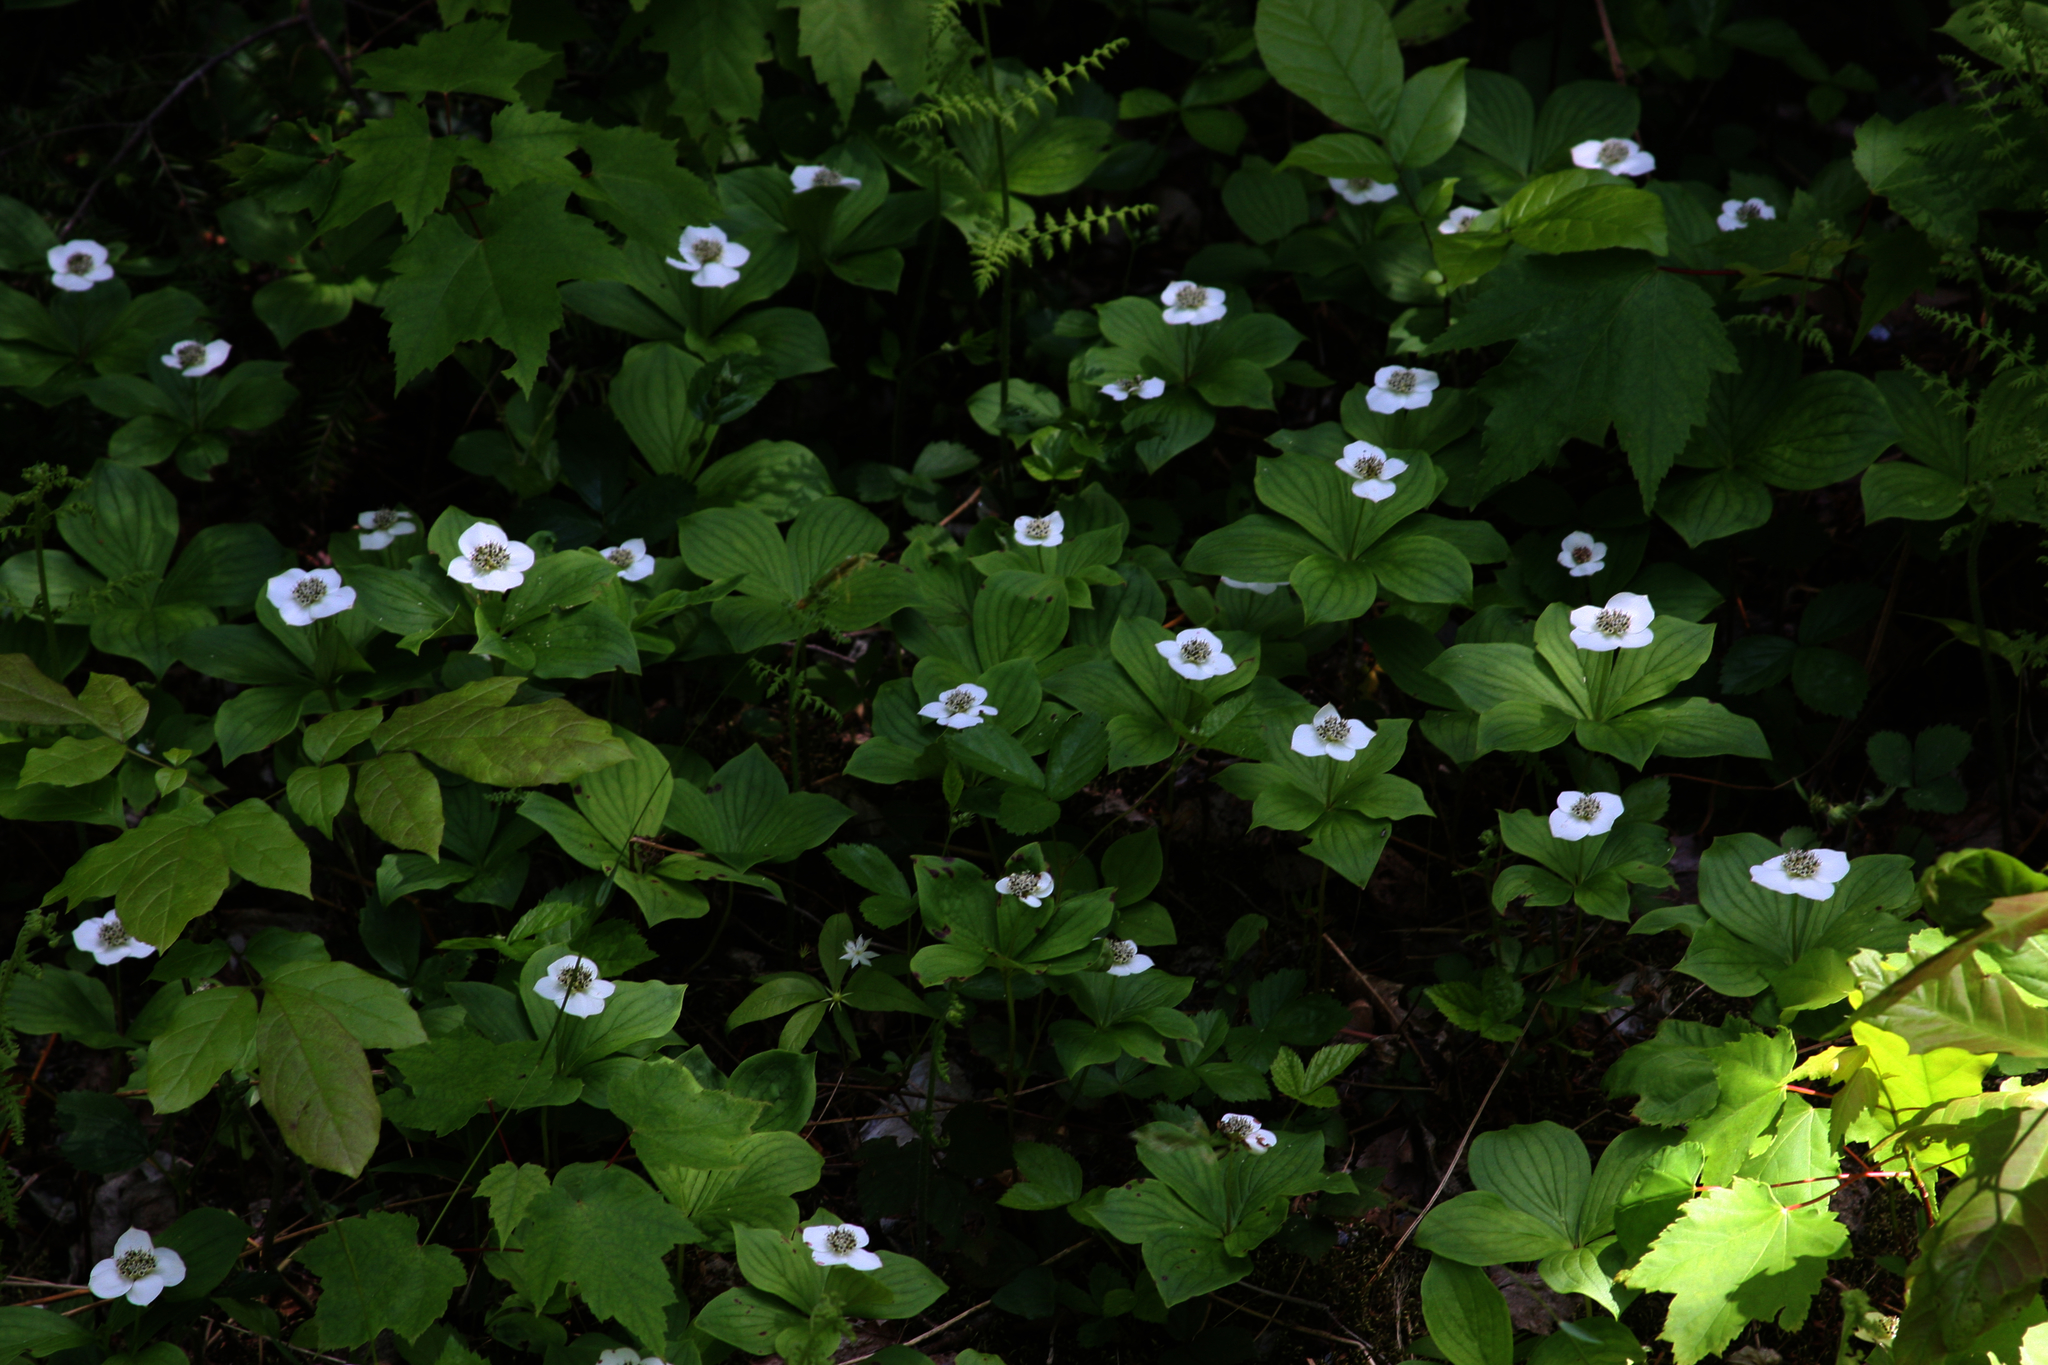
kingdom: Plantae
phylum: Tracheophyta
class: Magnoliopsida
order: Cornales
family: Cornaceae
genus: Cornus
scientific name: Cornus canadensis
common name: Creeping dogwood
